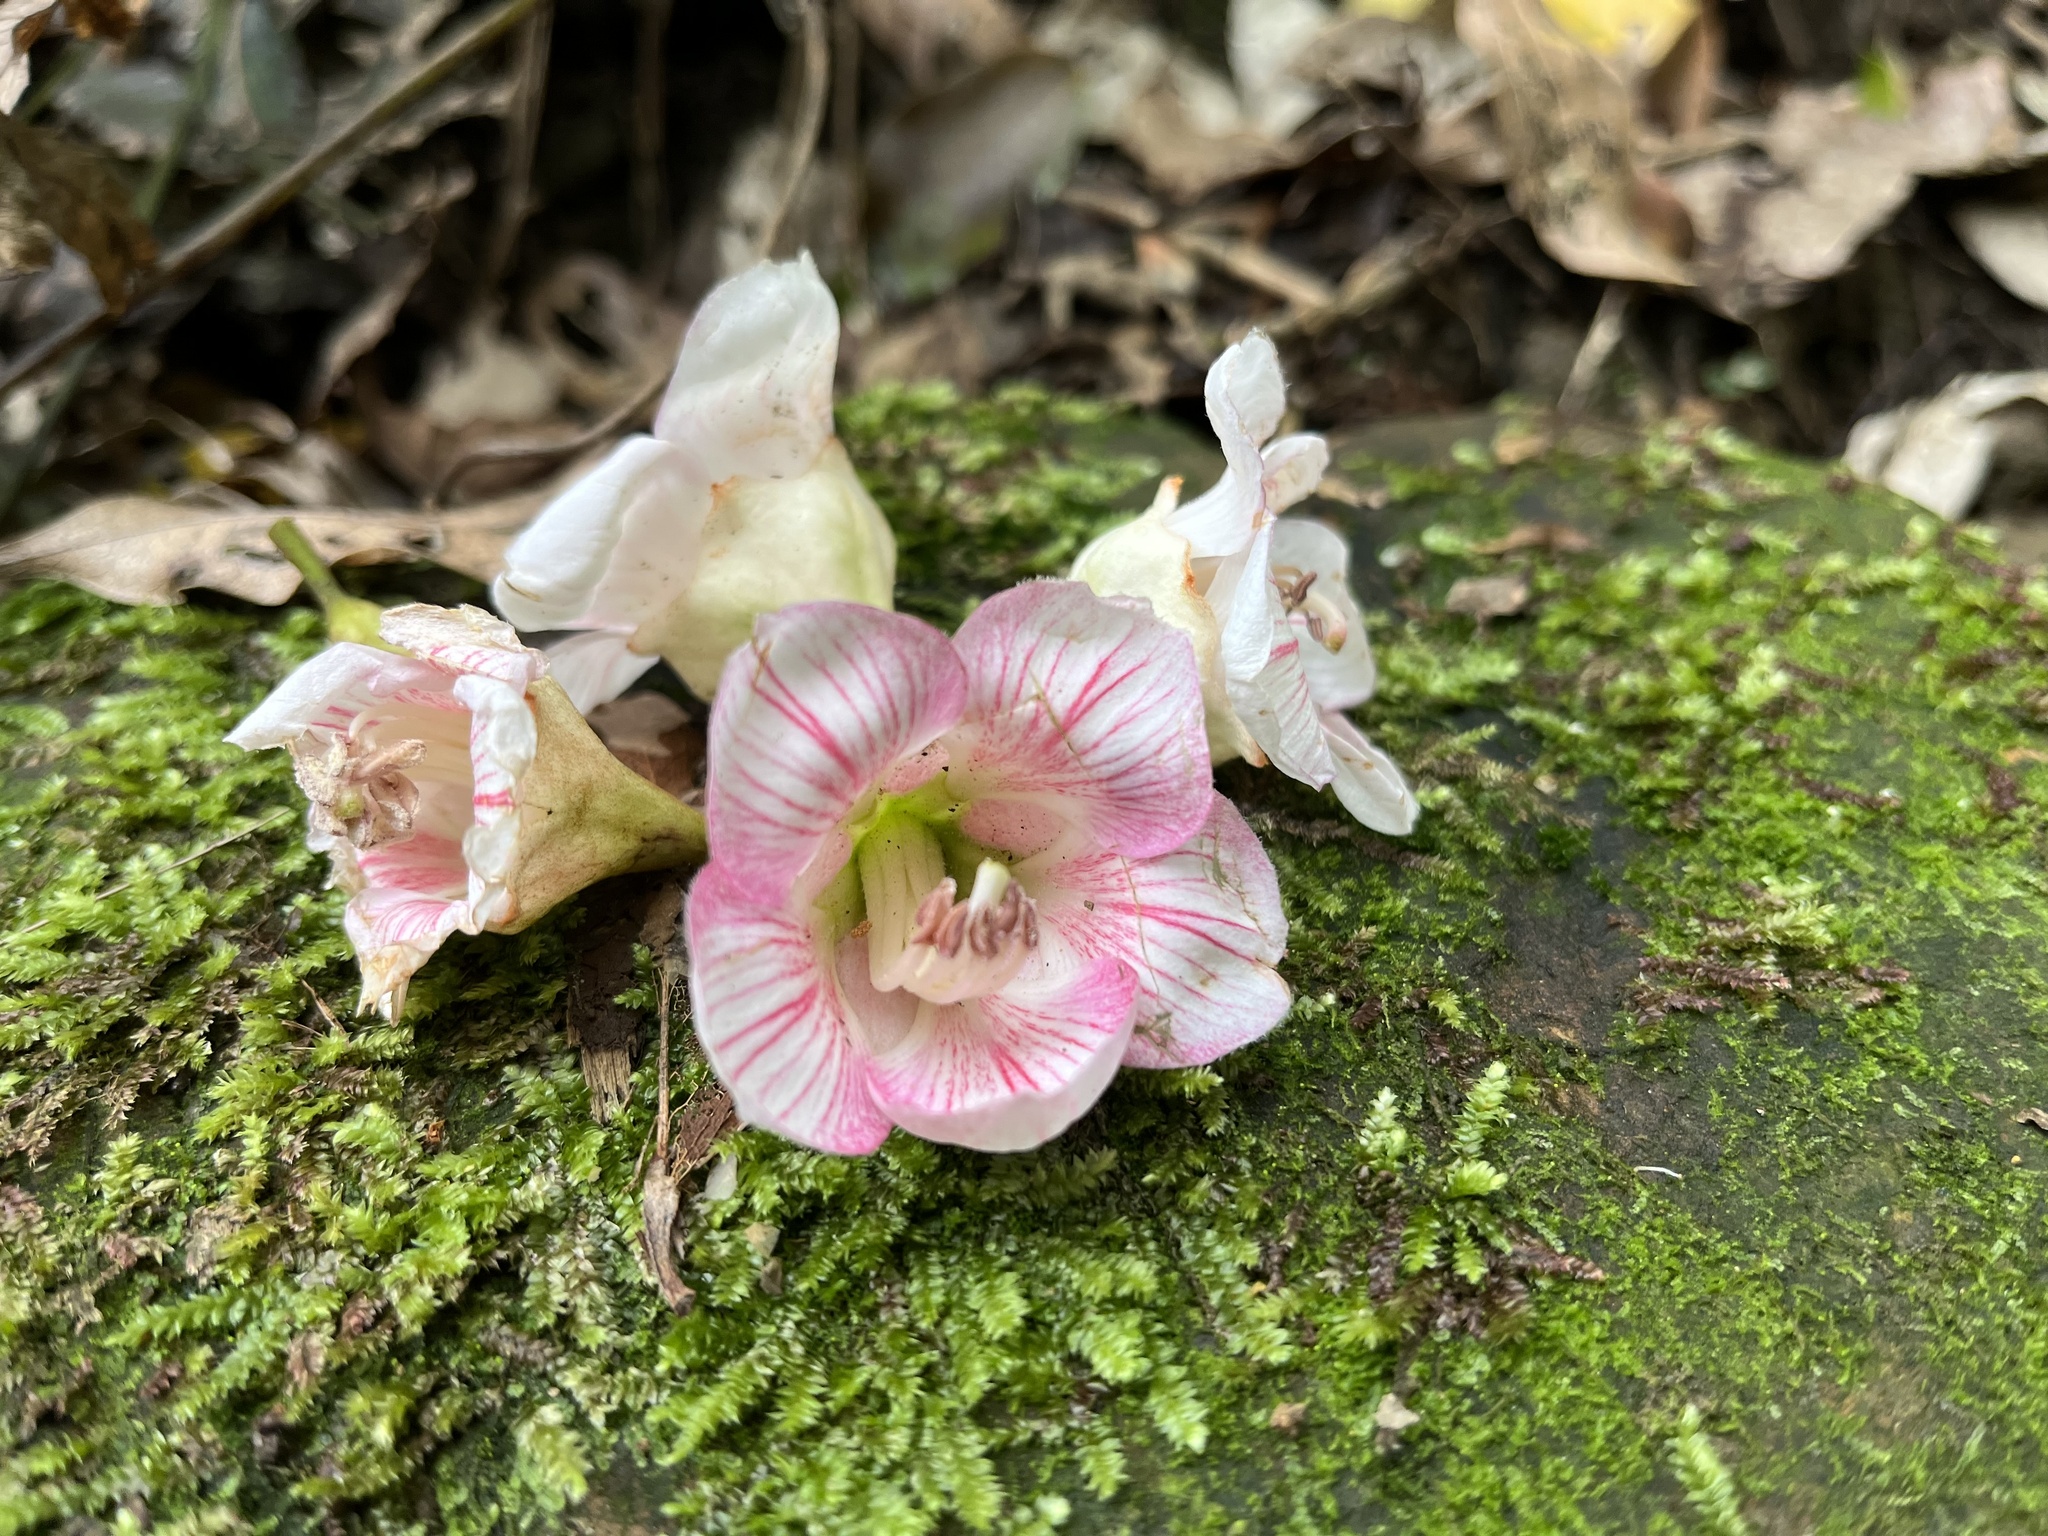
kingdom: Plantae
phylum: Tracheophyta
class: Magnoliopsida
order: Brassicales
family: Akaniaceae
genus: Bretschneidera
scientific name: Bretschneidera sinensis
